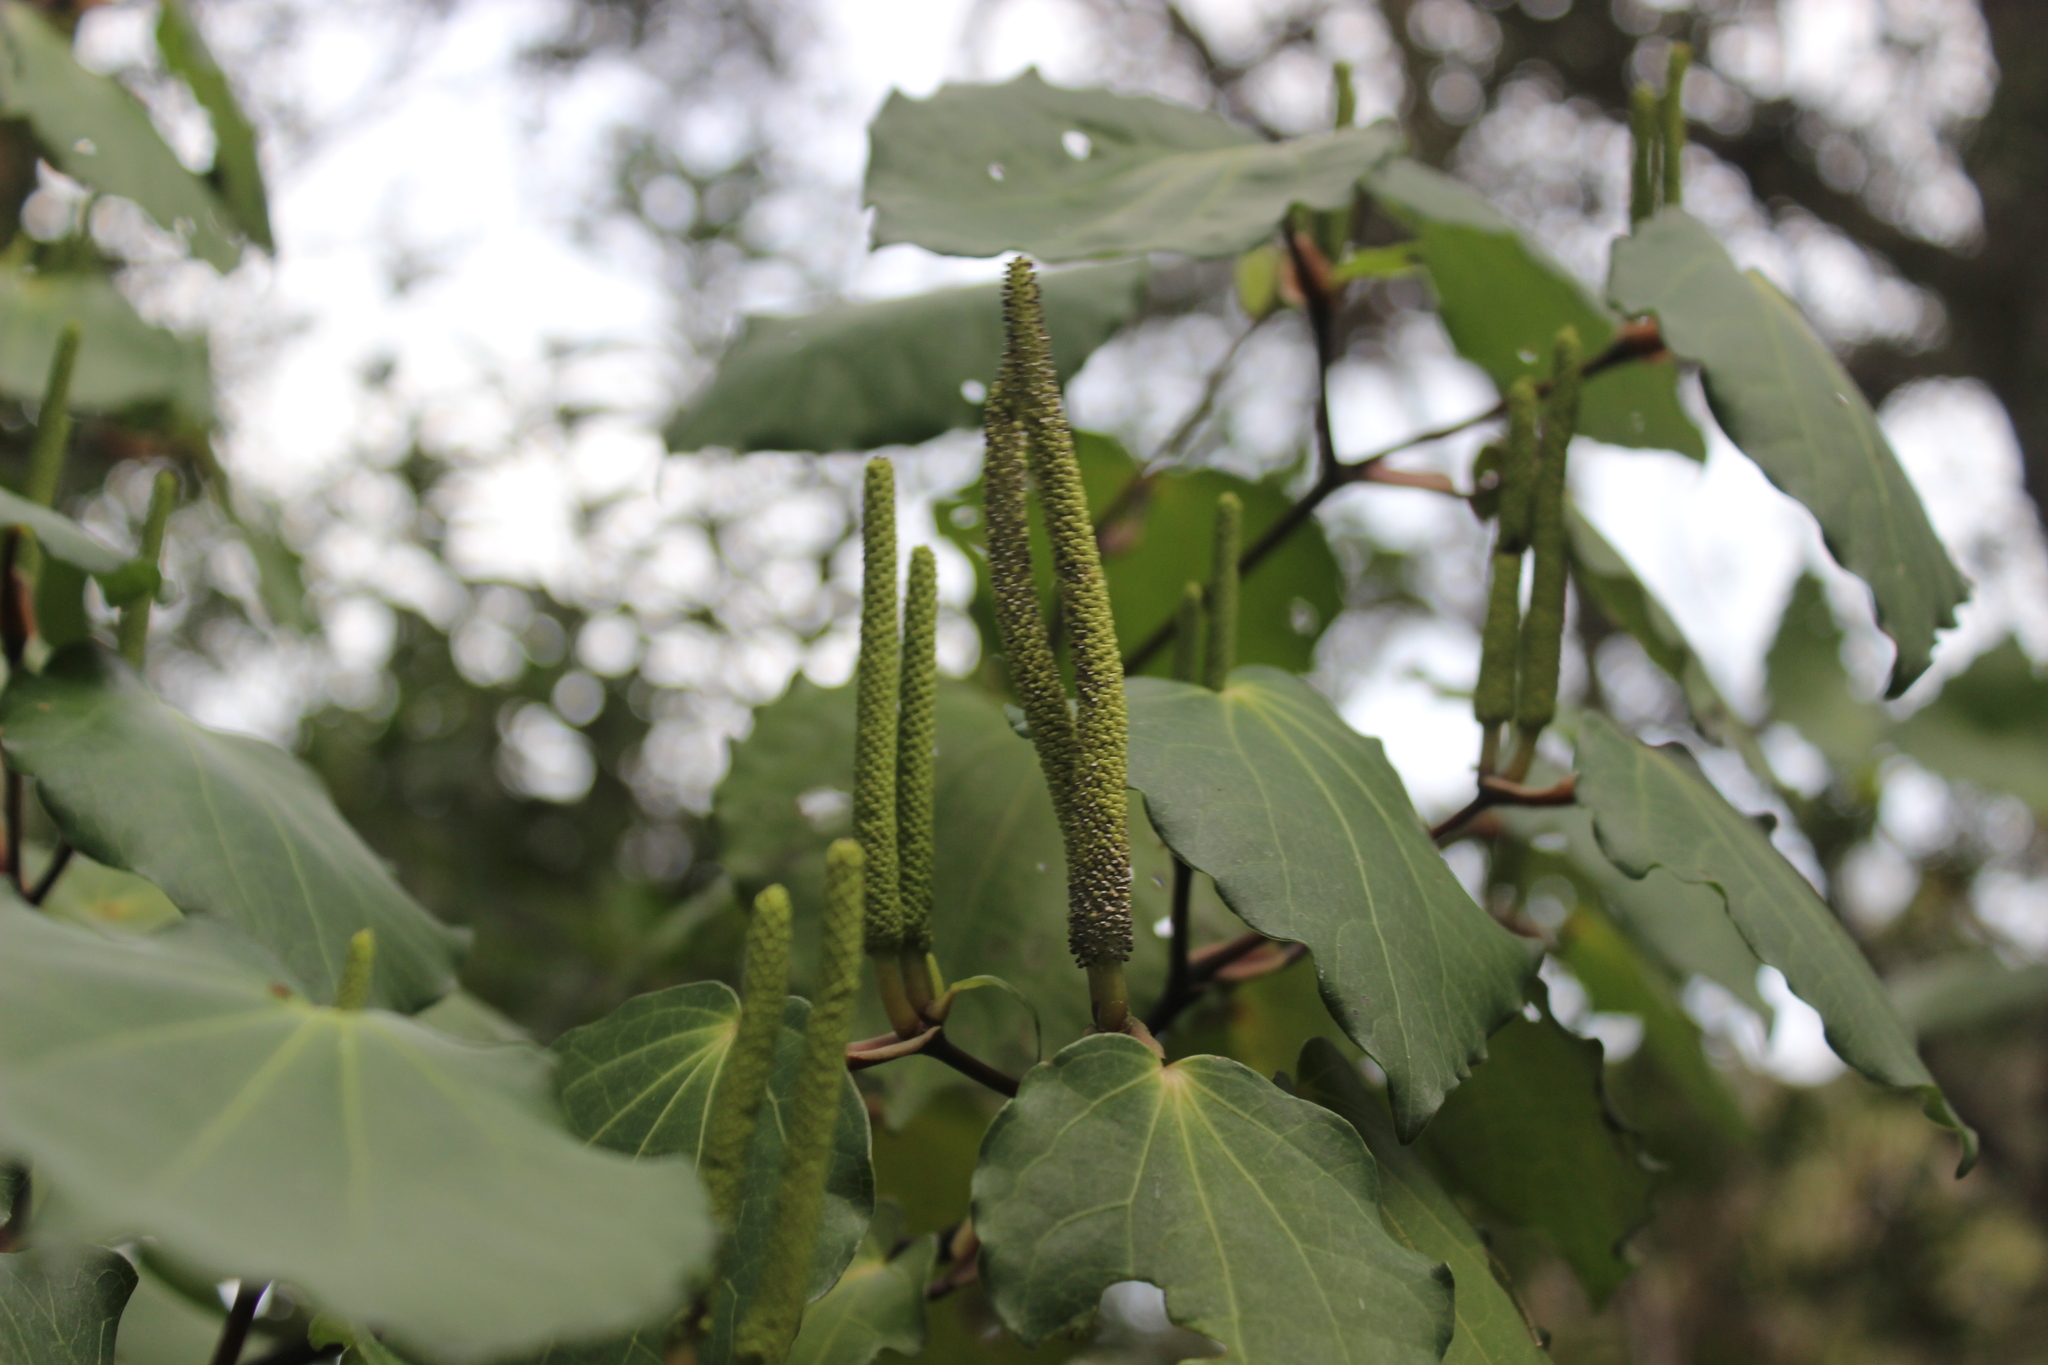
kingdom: Plantae
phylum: Tracheophyta
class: Magnoliopsida
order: Piperales
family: Piperaceae
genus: Macropiper
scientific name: Macropiper excelsum
